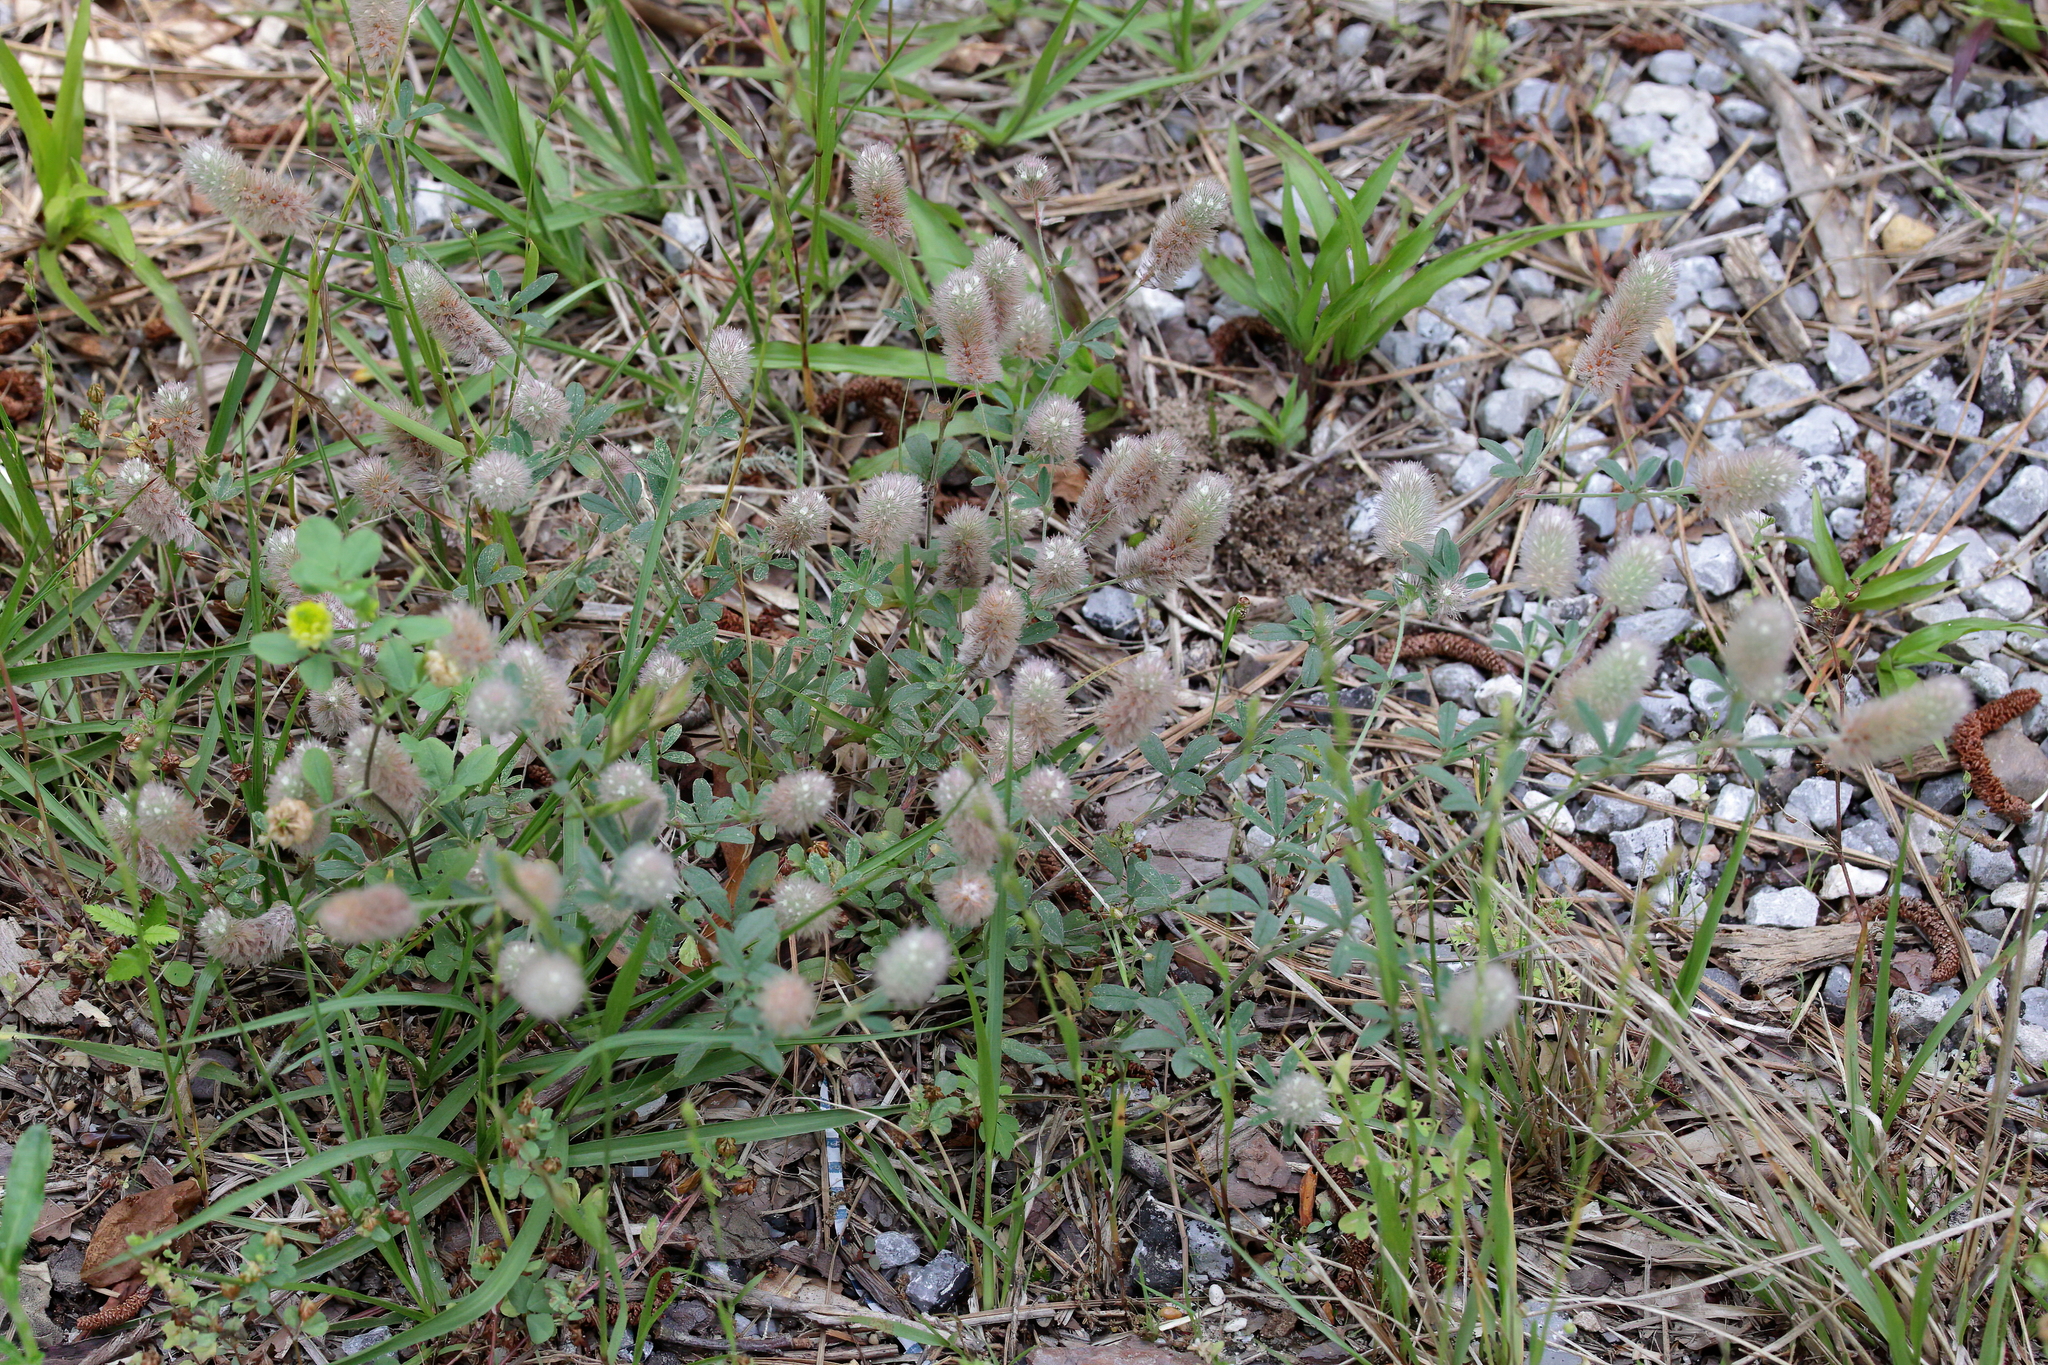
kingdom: Plantae
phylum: Tracheophyta
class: Magnoliopsida
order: Fabales
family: Fabaceae
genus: Trifolium
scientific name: Trifolium arvense
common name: Hare's-foot clover
